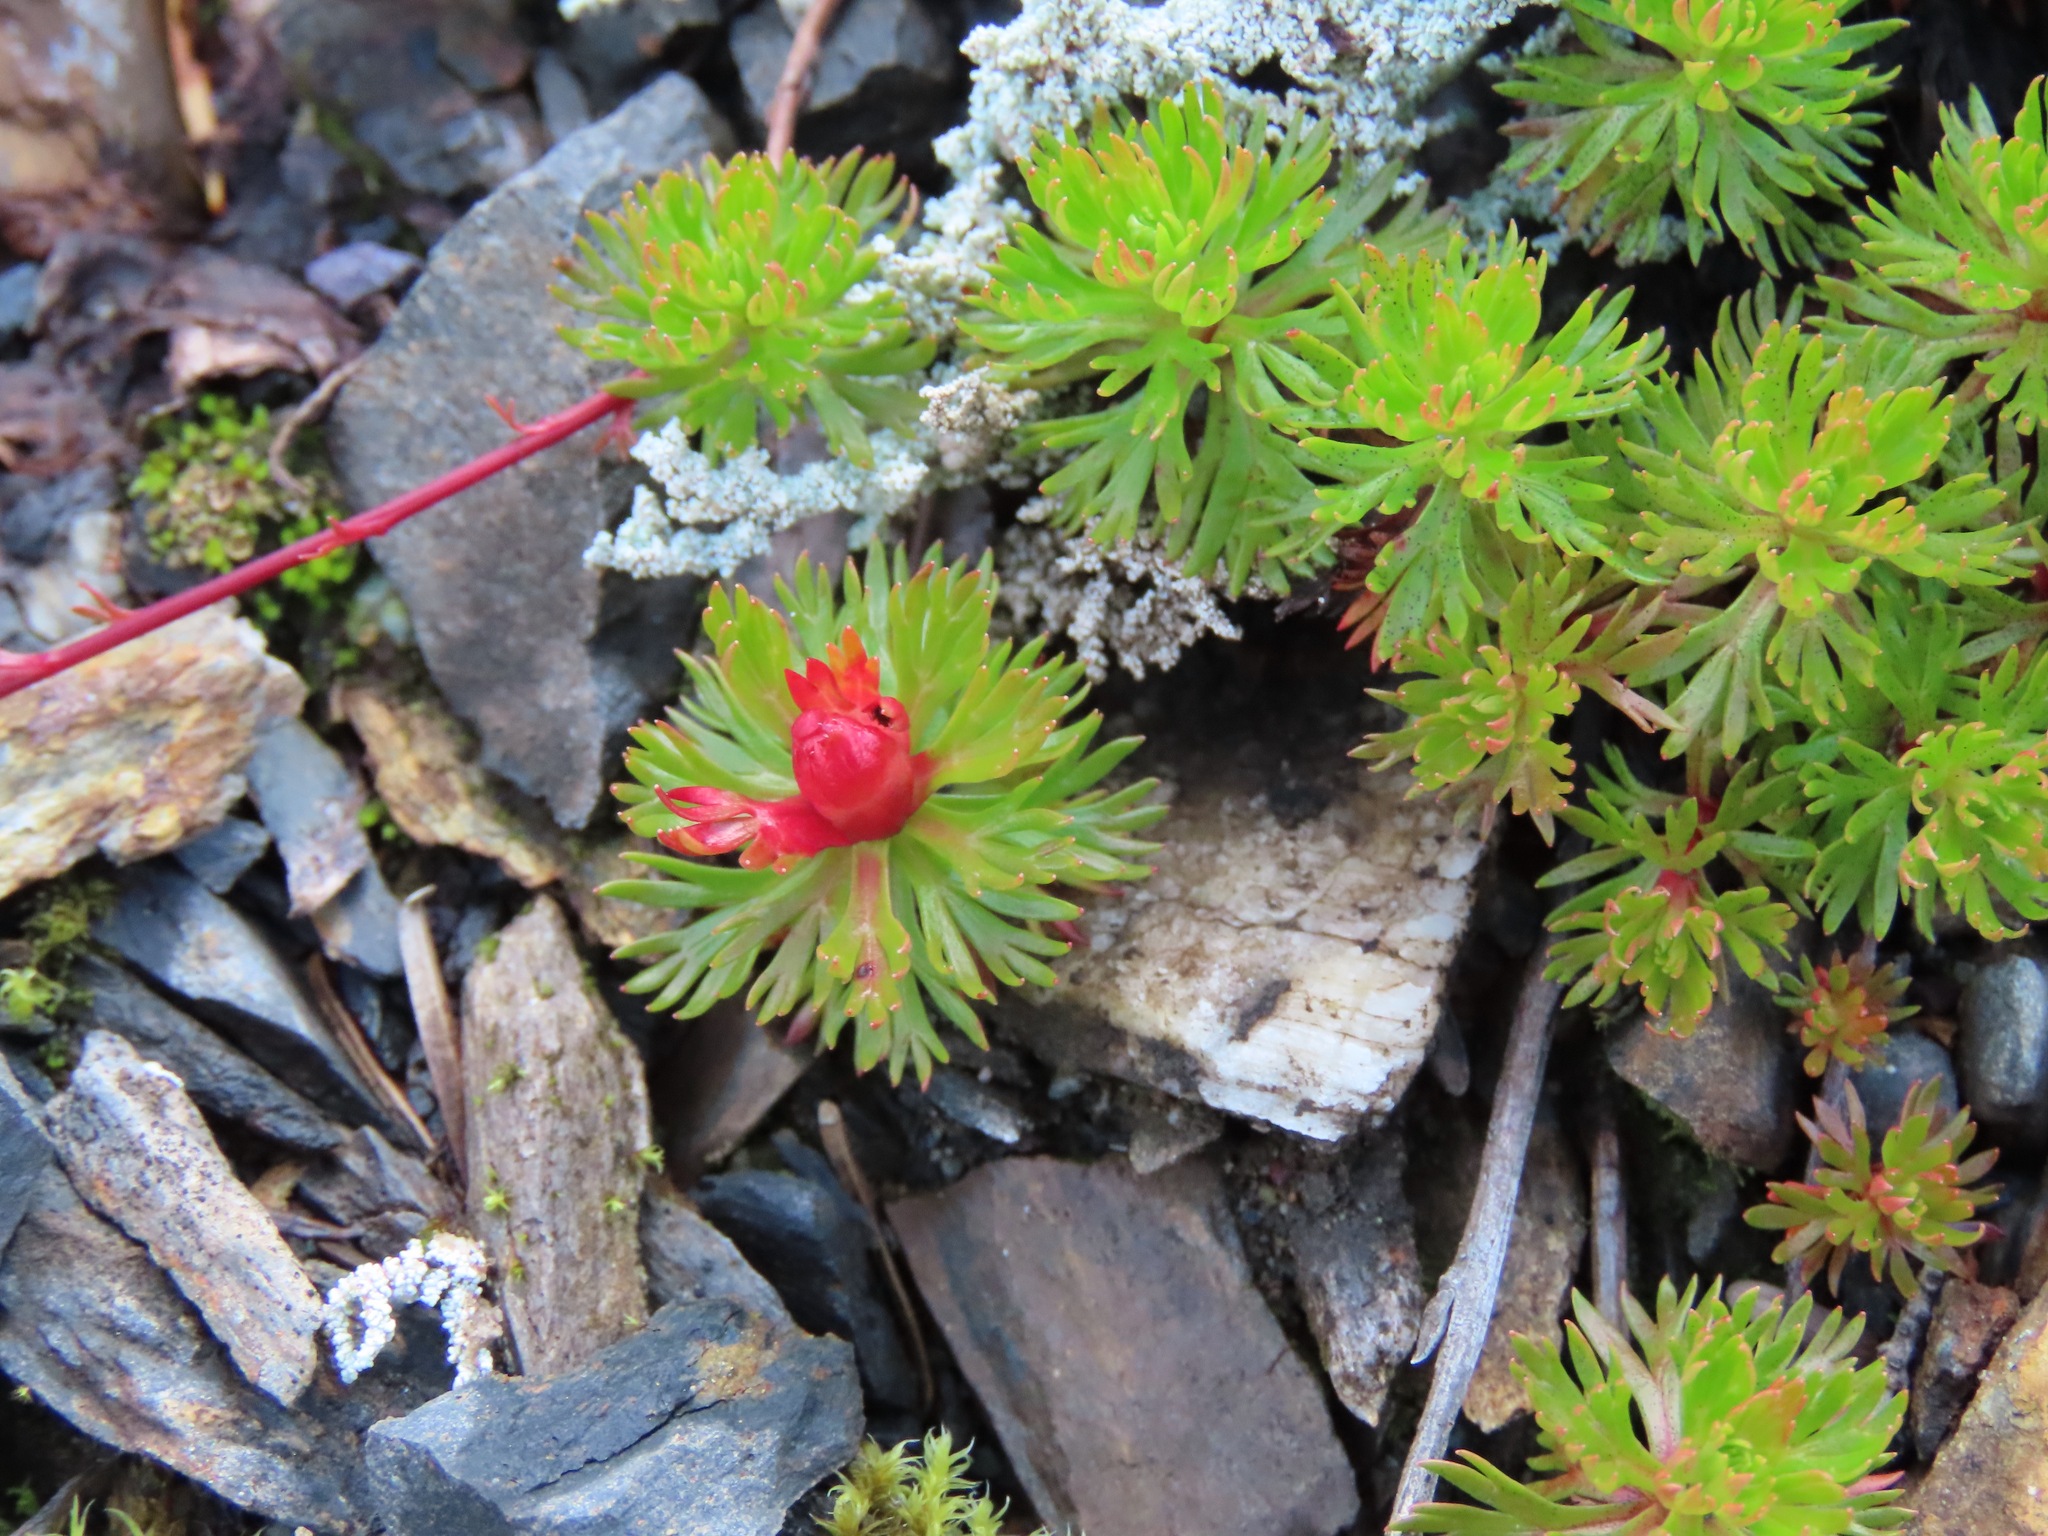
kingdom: Plantae
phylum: Tracheophyta
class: Magnoliopsida
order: Rosales
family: Rosaceae
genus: Luetkea
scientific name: Luetkea pectinata
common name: Partridgefoot
